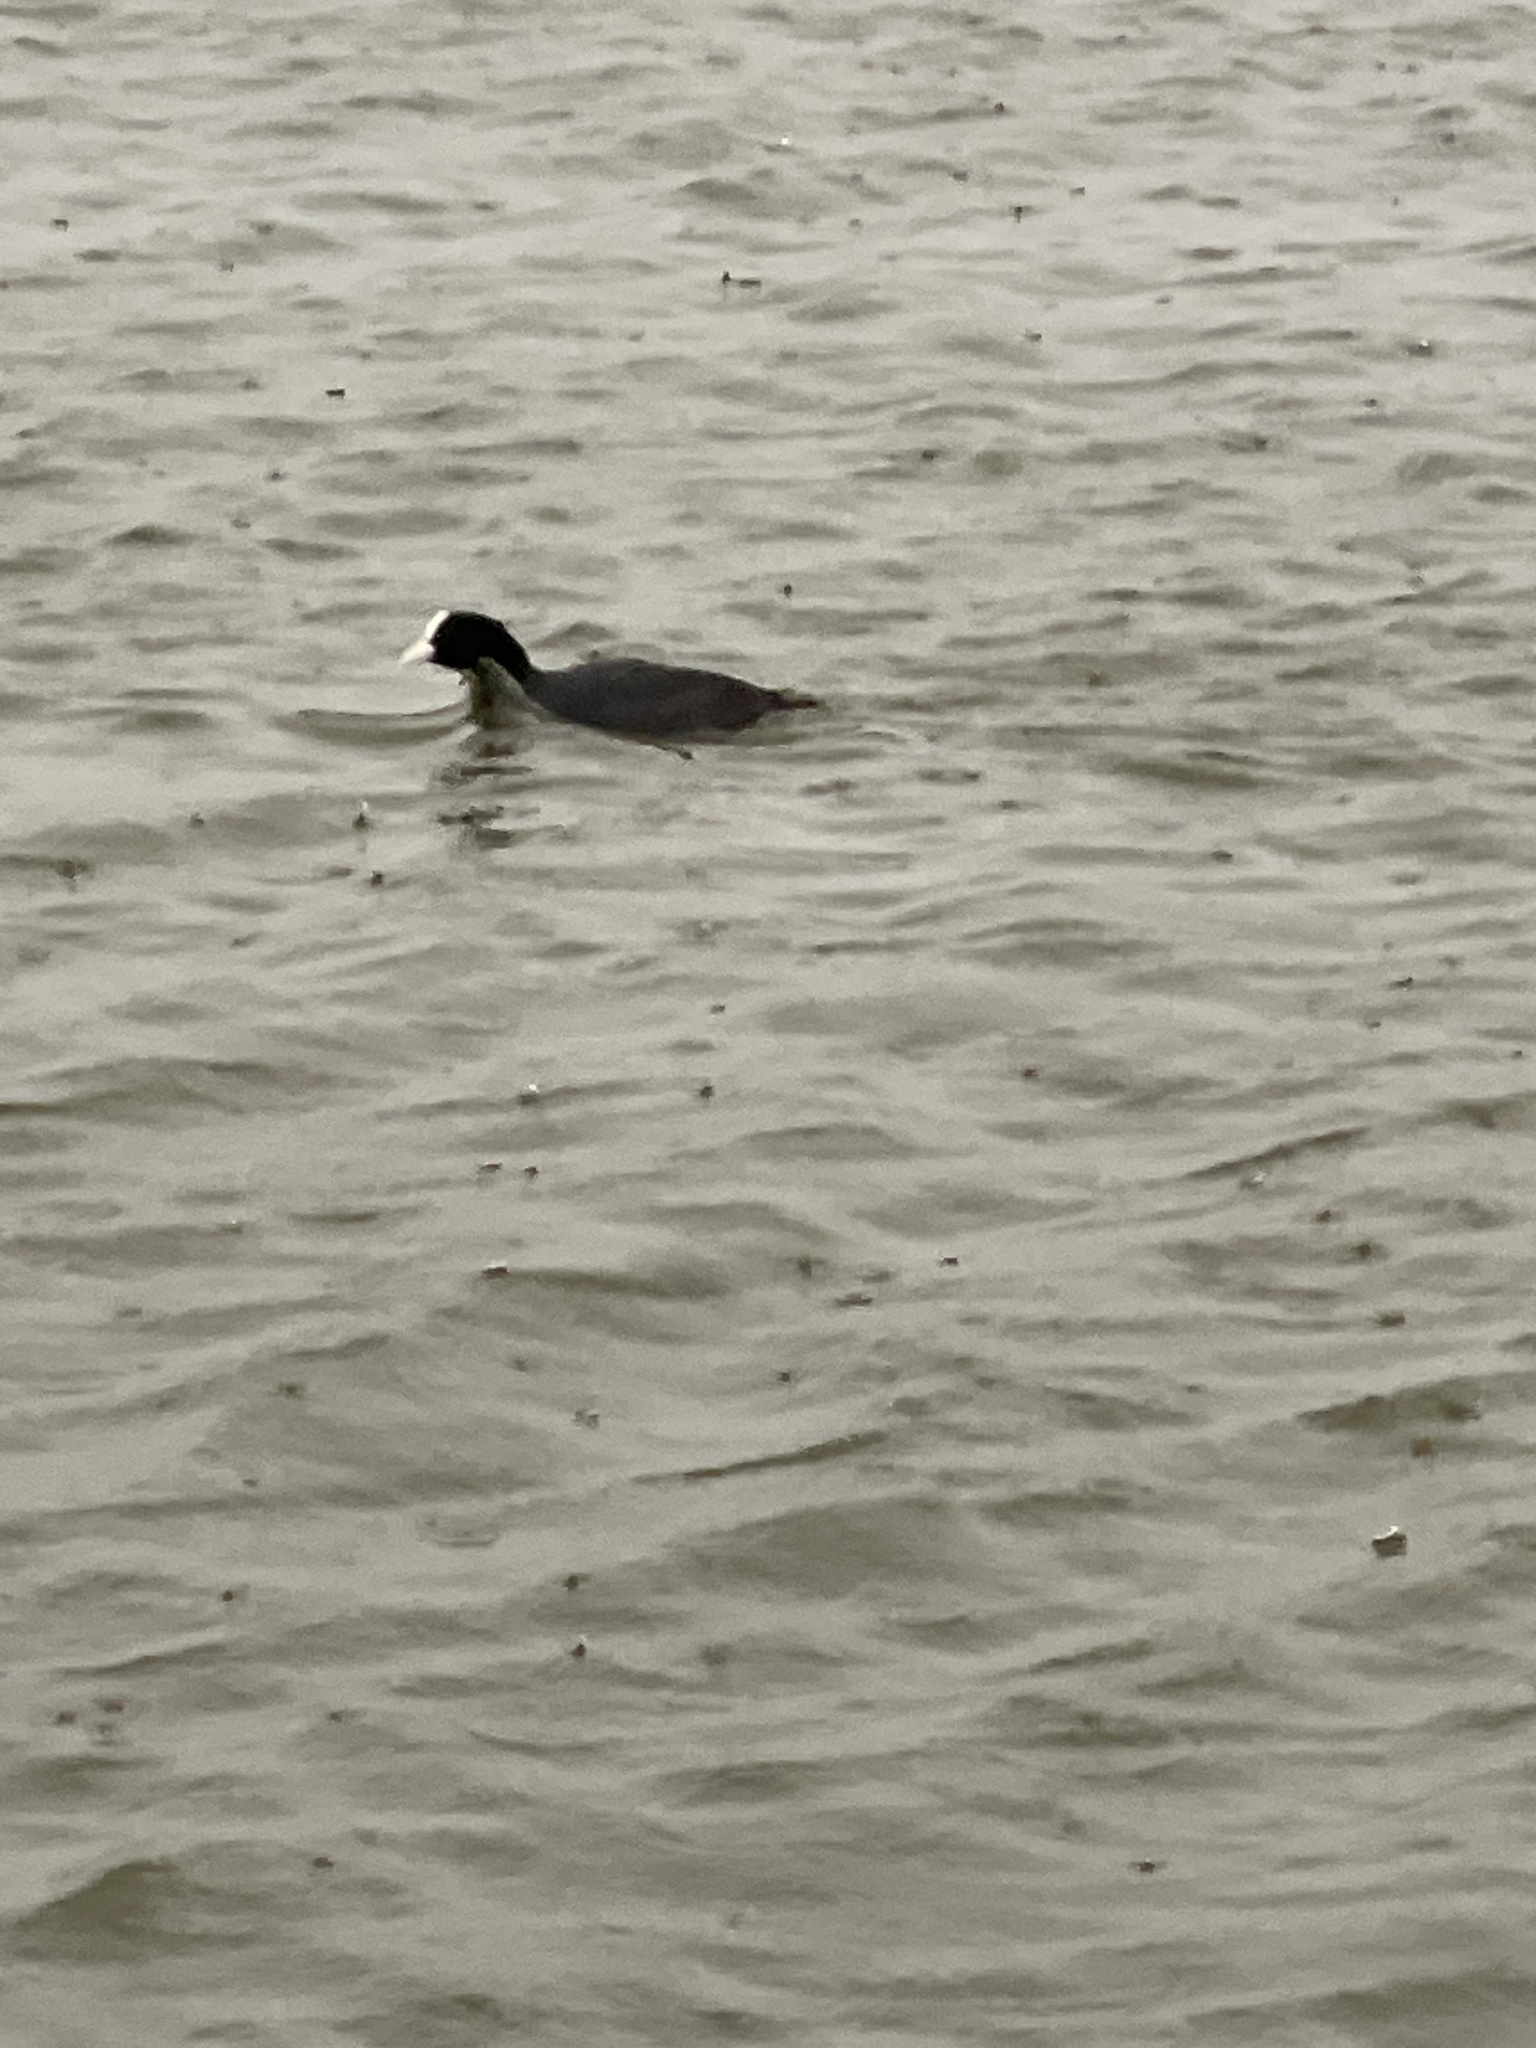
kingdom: Animalia
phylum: Chordata
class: Aves
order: Gruiformes
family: Rallidae
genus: Fulica
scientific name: Fulica atra
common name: Eurasian coot
